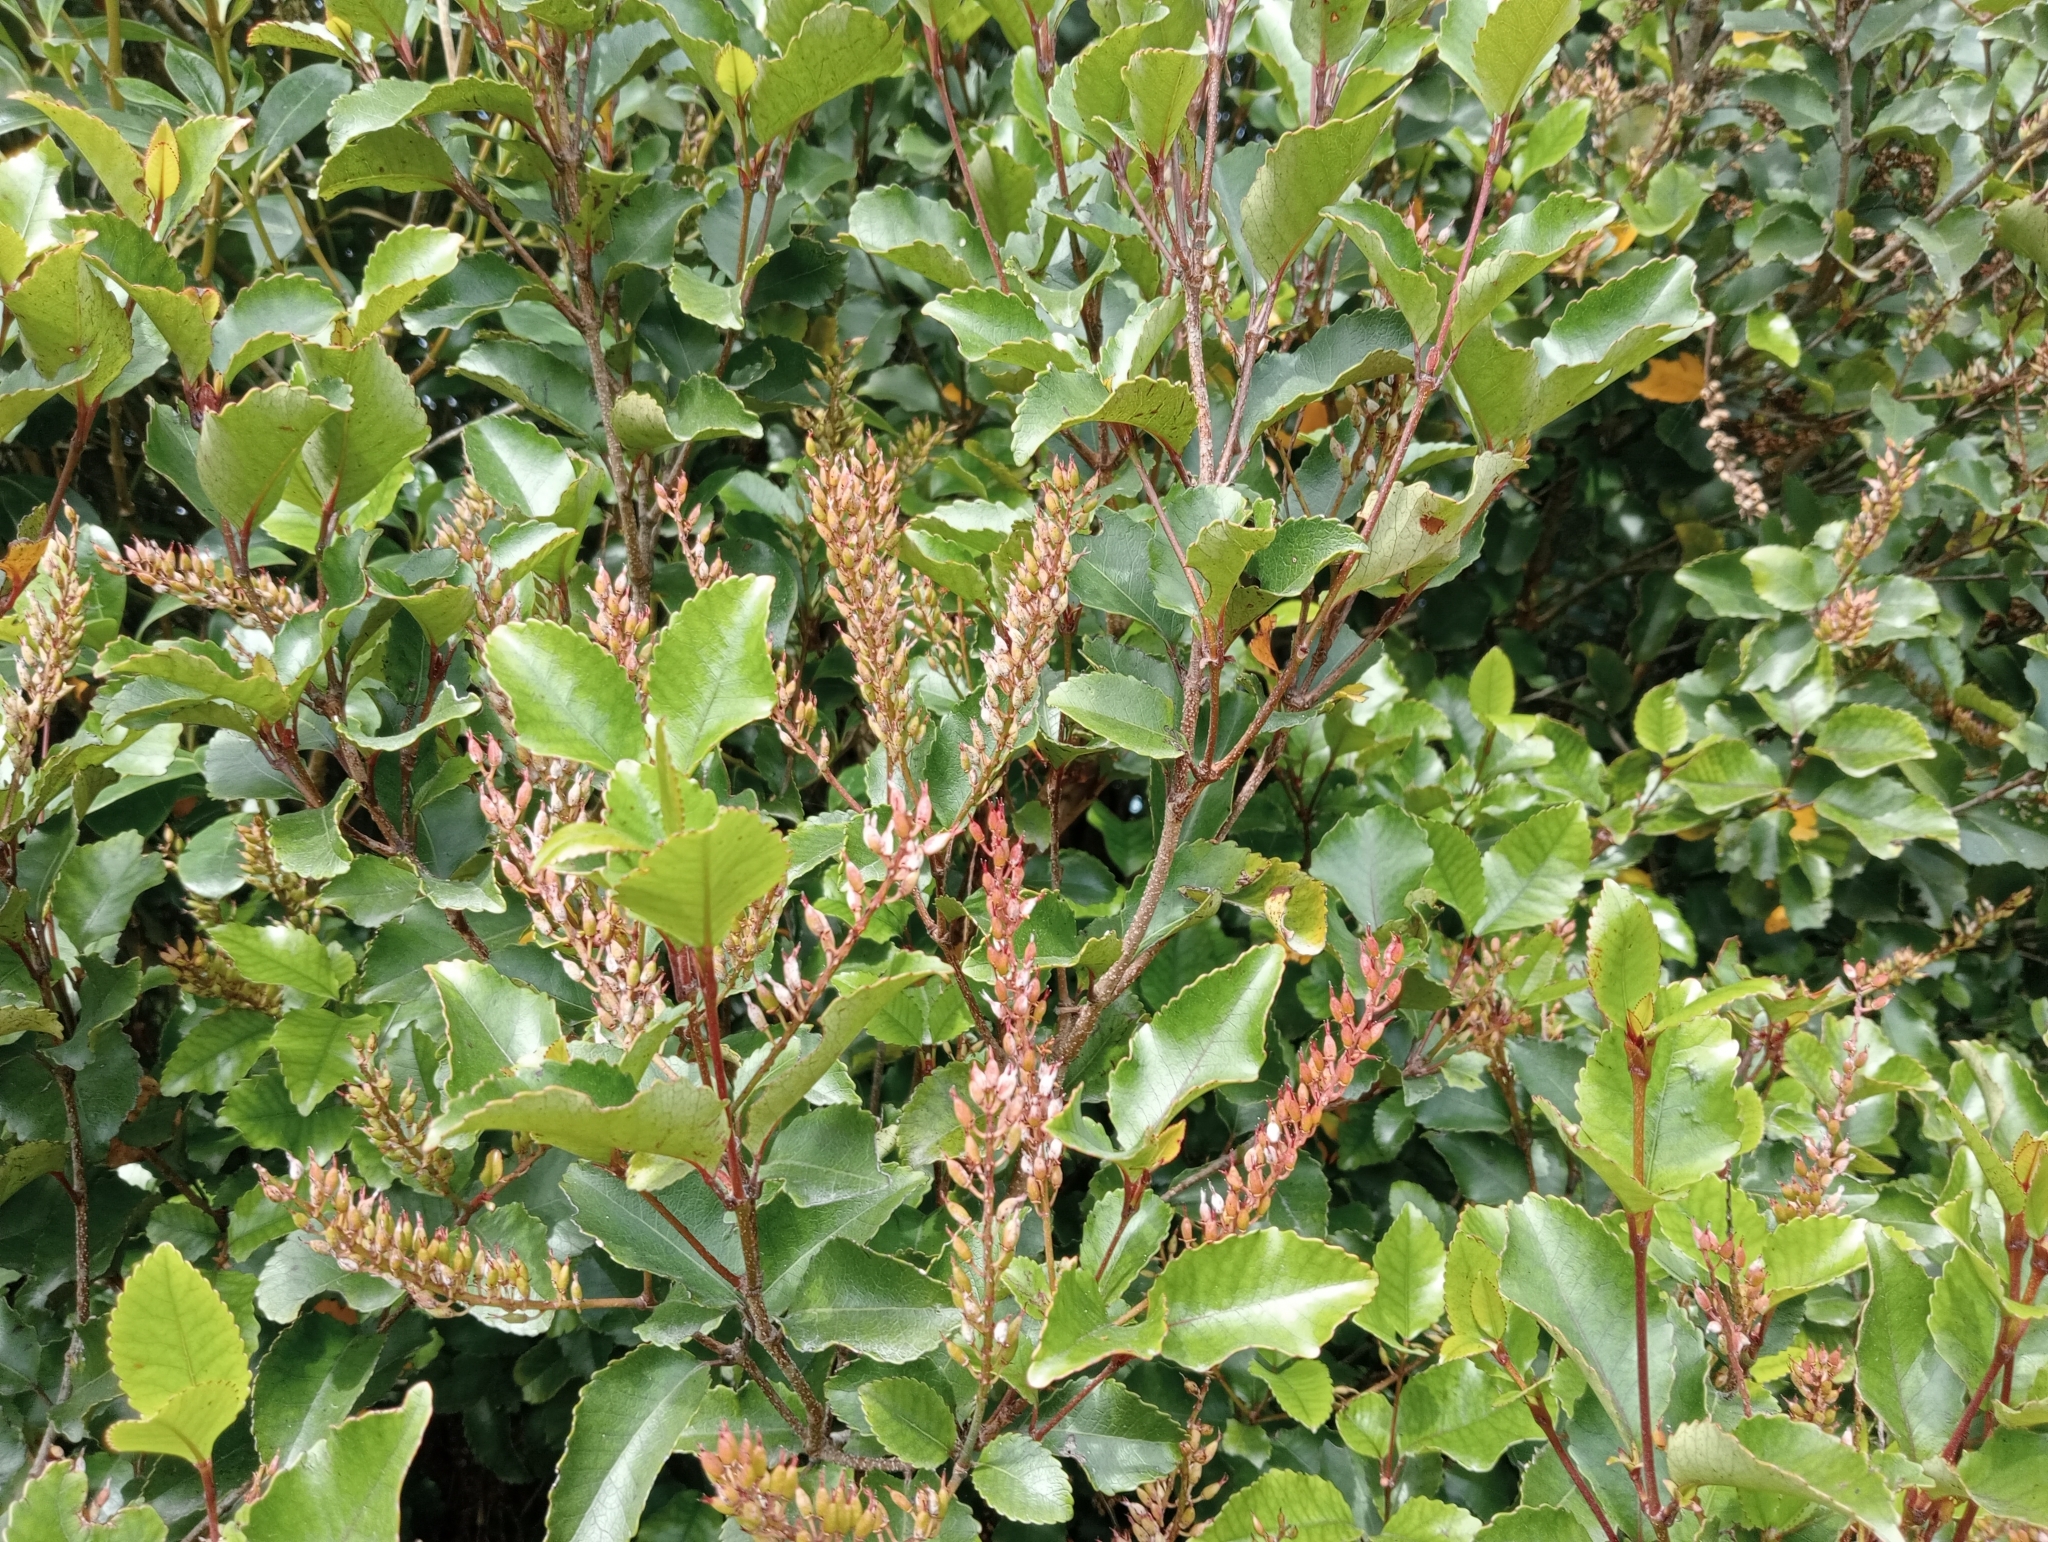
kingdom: Plantae
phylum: Tracheophyta
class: Magnoliopsida
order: Oxalidales
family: Cunoniaceae
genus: Pterophylla
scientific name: Pterophylla racemosa
